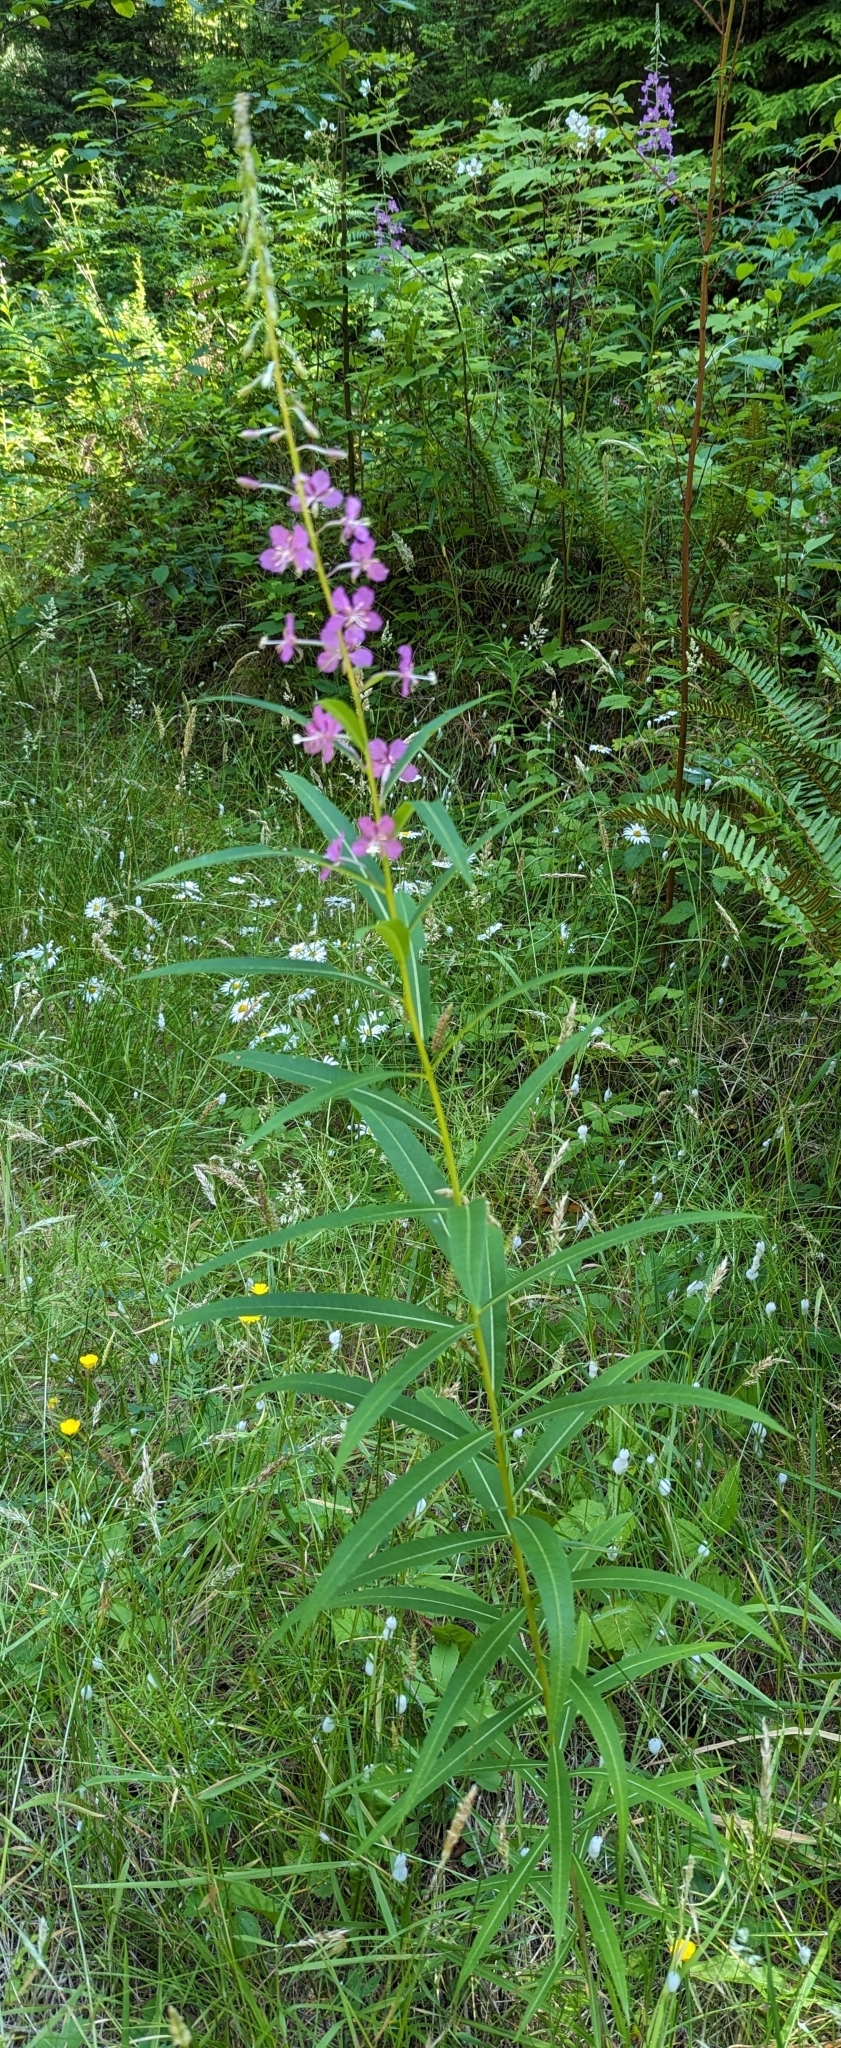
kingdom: Plantae
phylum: Tracheophyta
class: Magnoliopsida
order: Myrtales
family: Onagraceae
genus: Chamaenerion
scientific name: Chamaenerion angustifolium
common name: Fireweed
